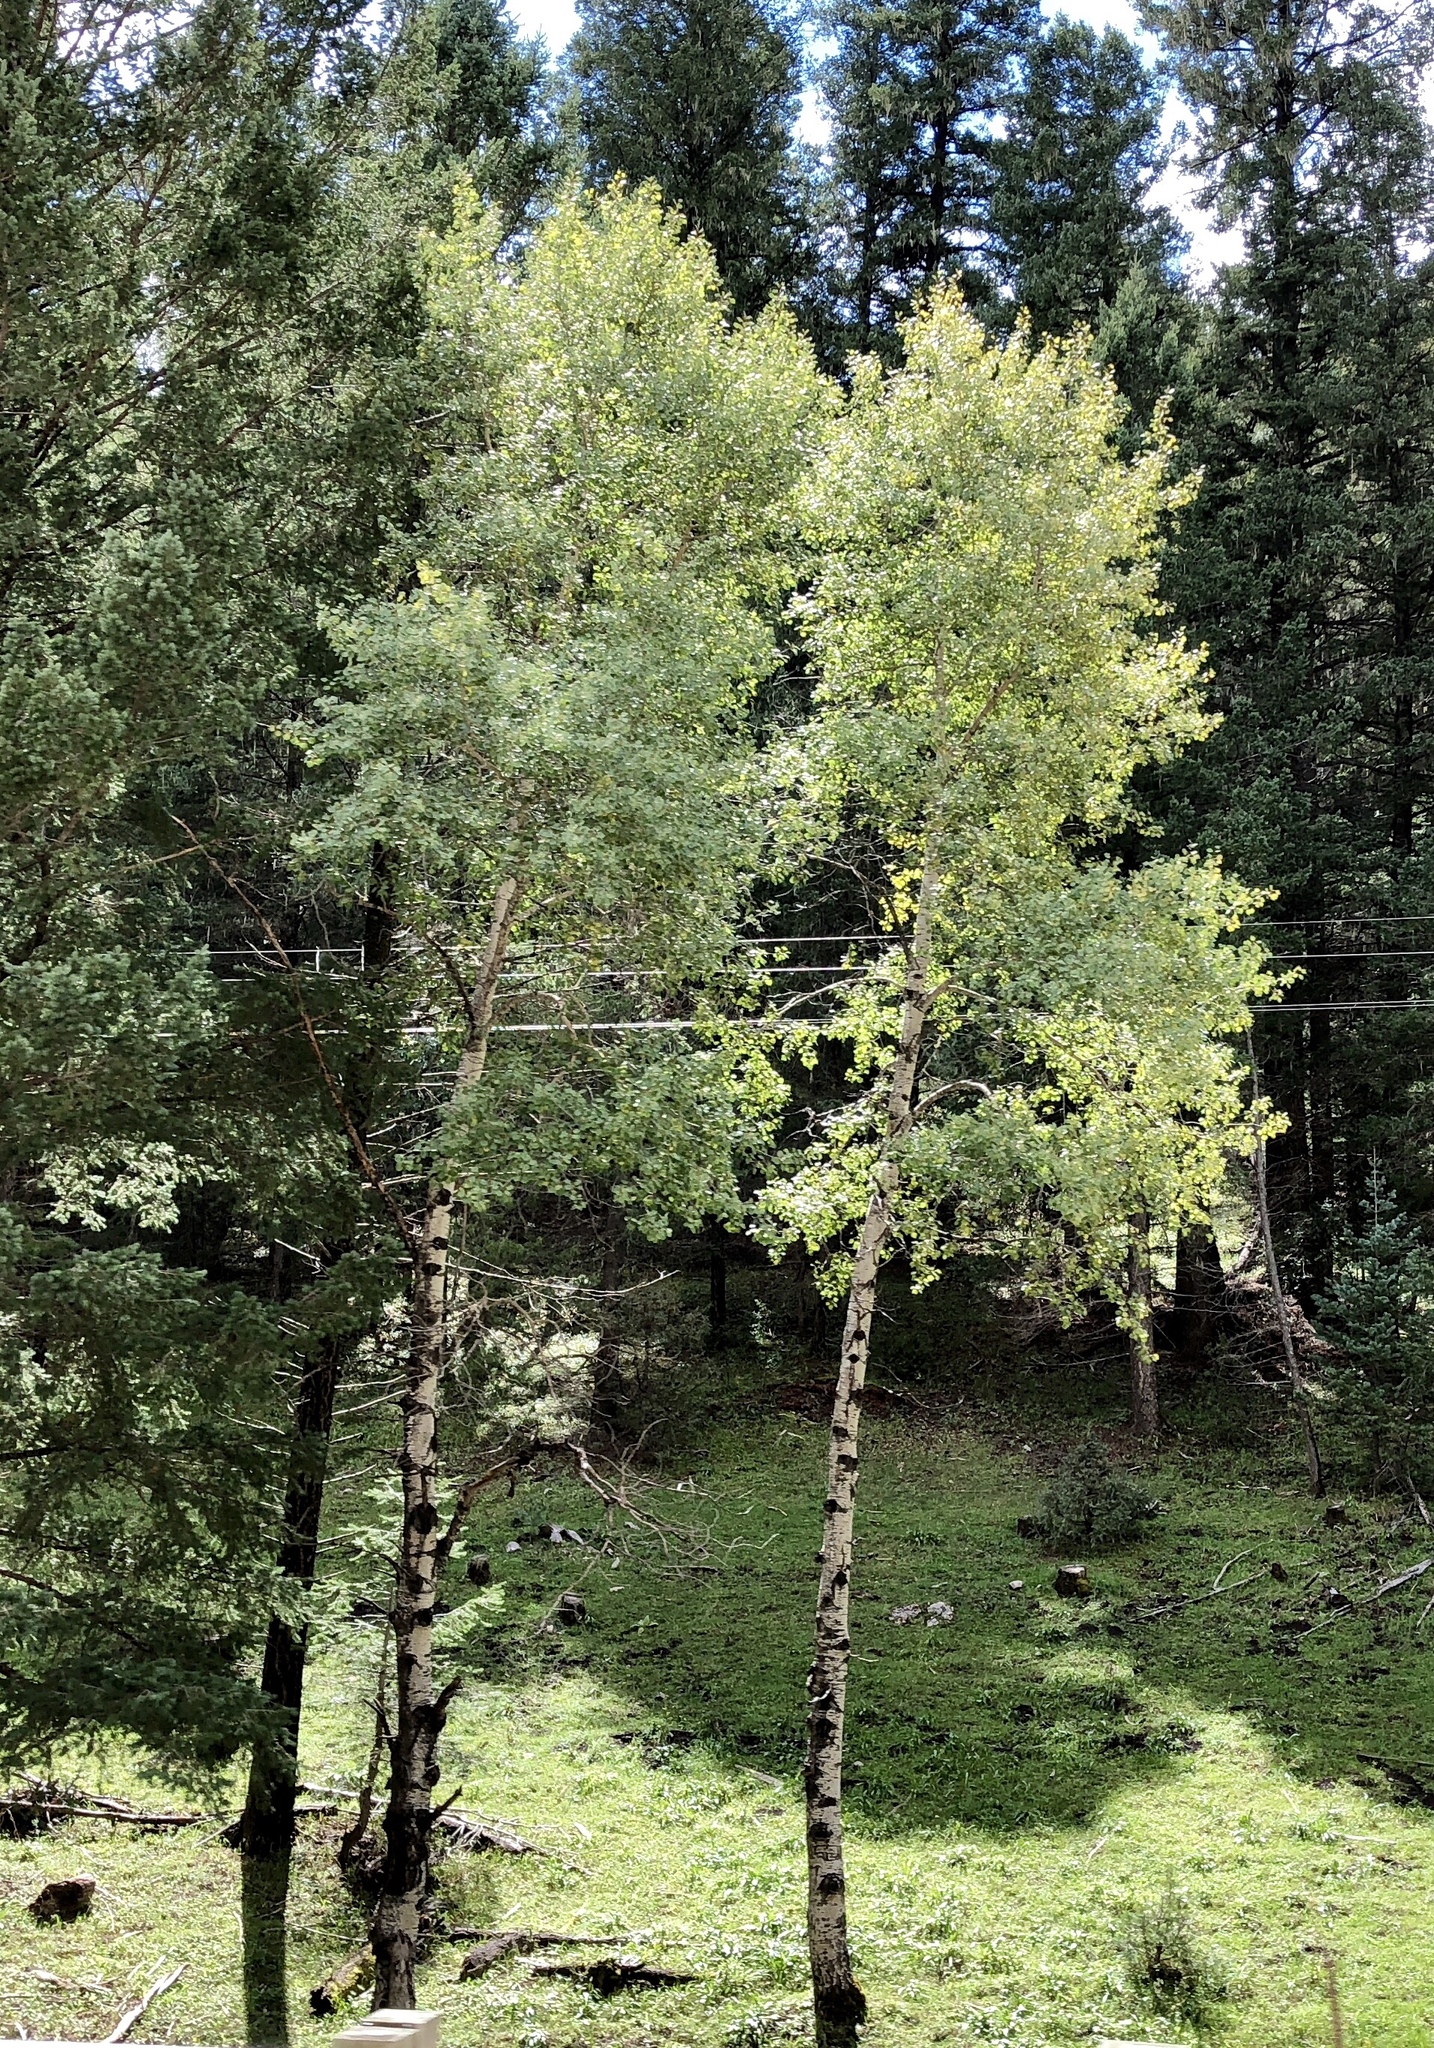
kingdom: Plantae
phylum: Tracheophyta
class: Magnoliopsida
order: Malpighiales
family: Salicaceae
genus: Populus
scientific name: Populus tremuloides
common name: Quaking aspen
